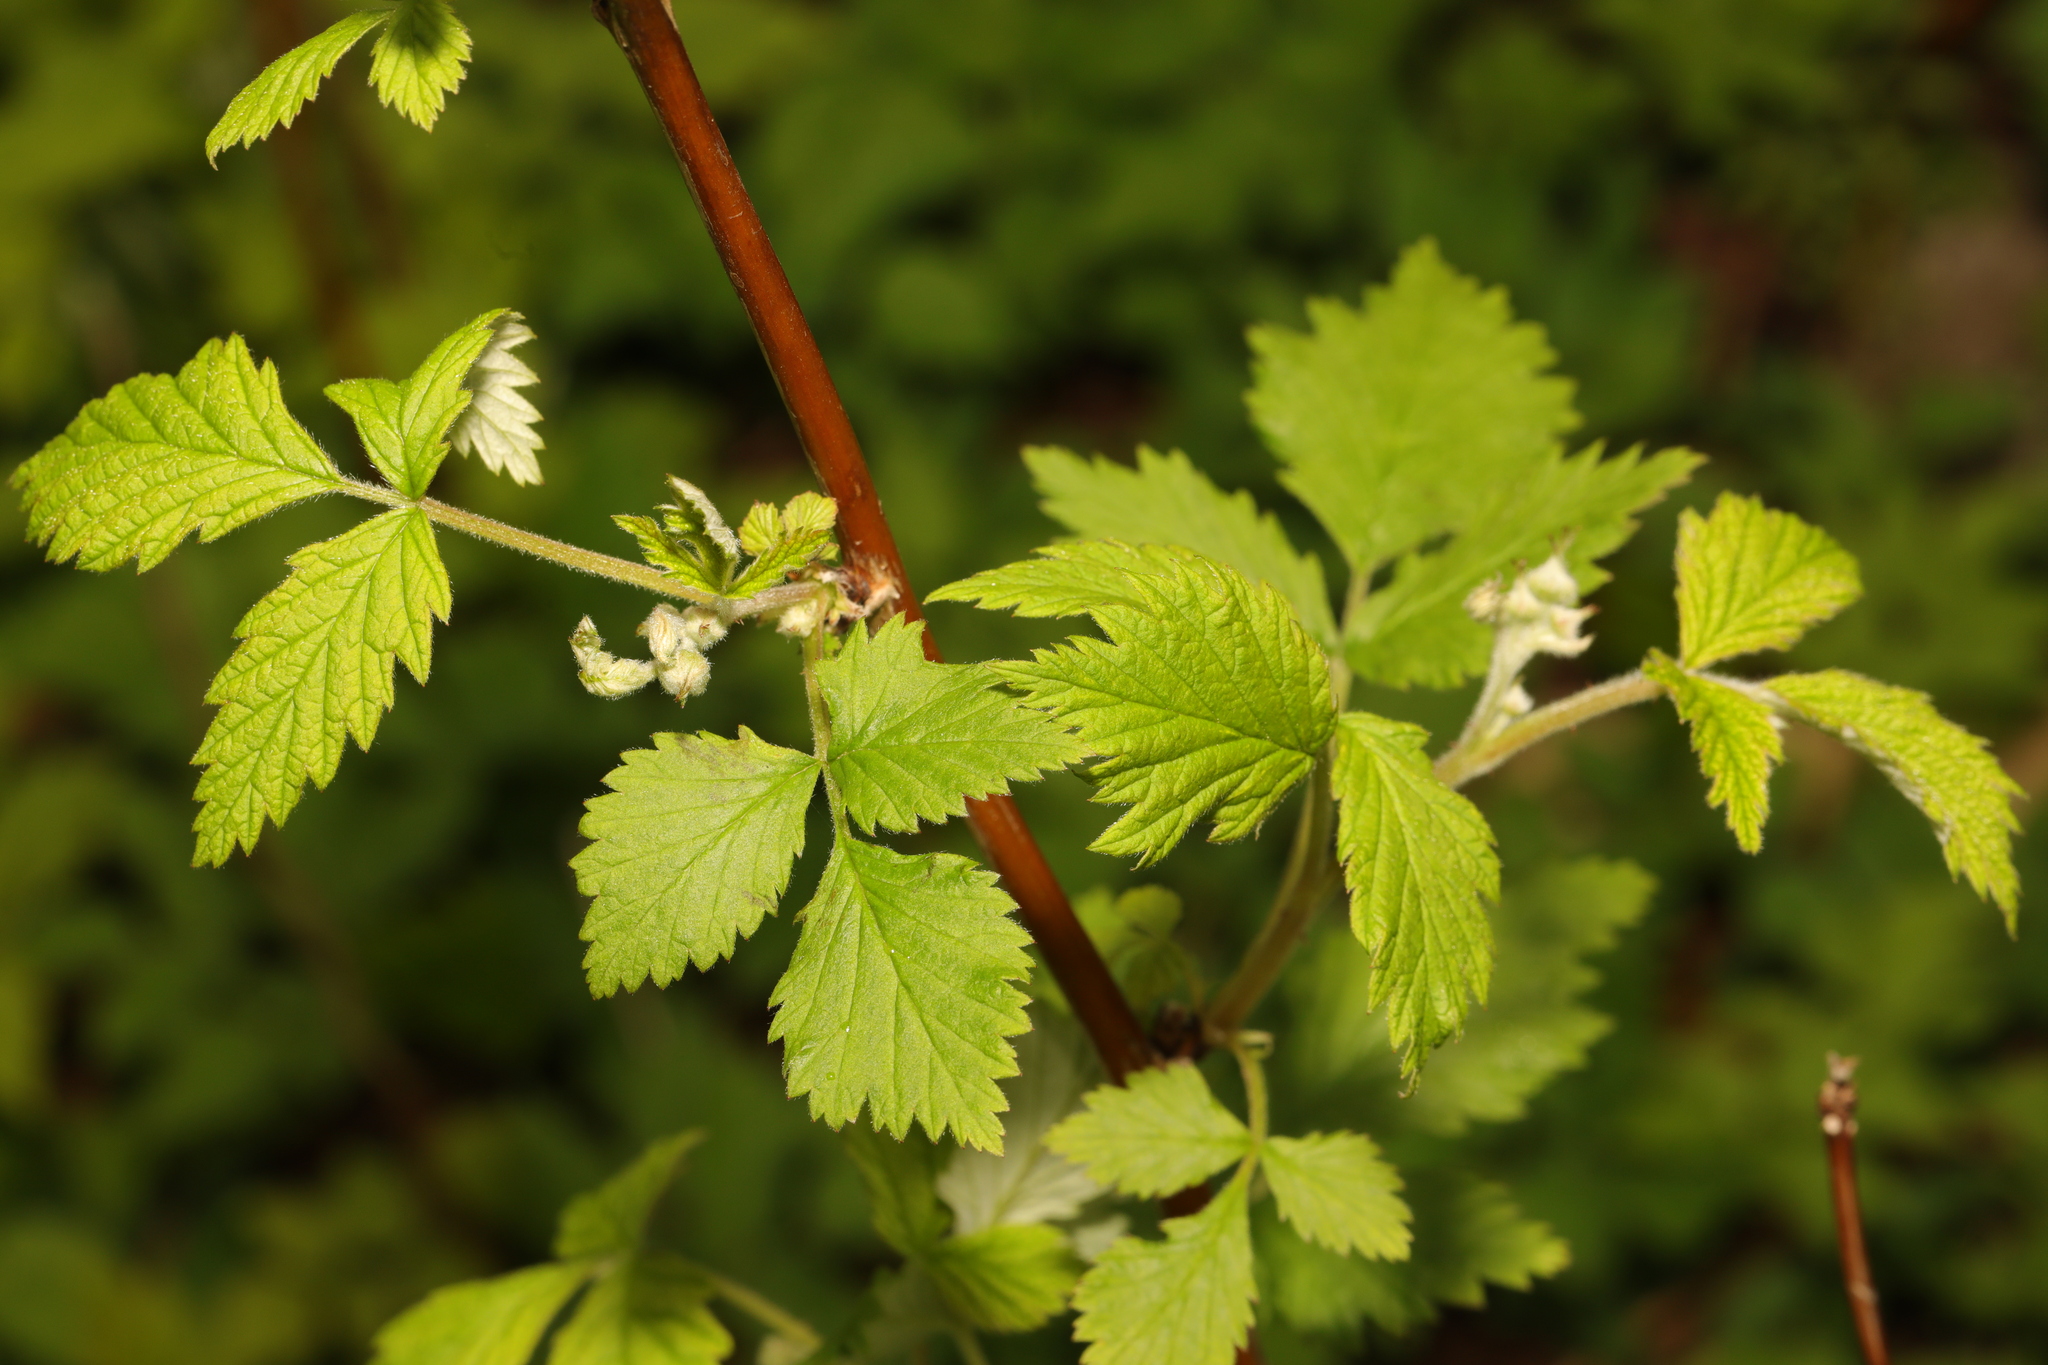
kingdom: Plantae
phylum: Tracheophyta
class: Magnoliopsida
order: Rosales
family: Rosaceae
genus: Rubus
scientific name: Rubus idaeus
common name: Raspberry
